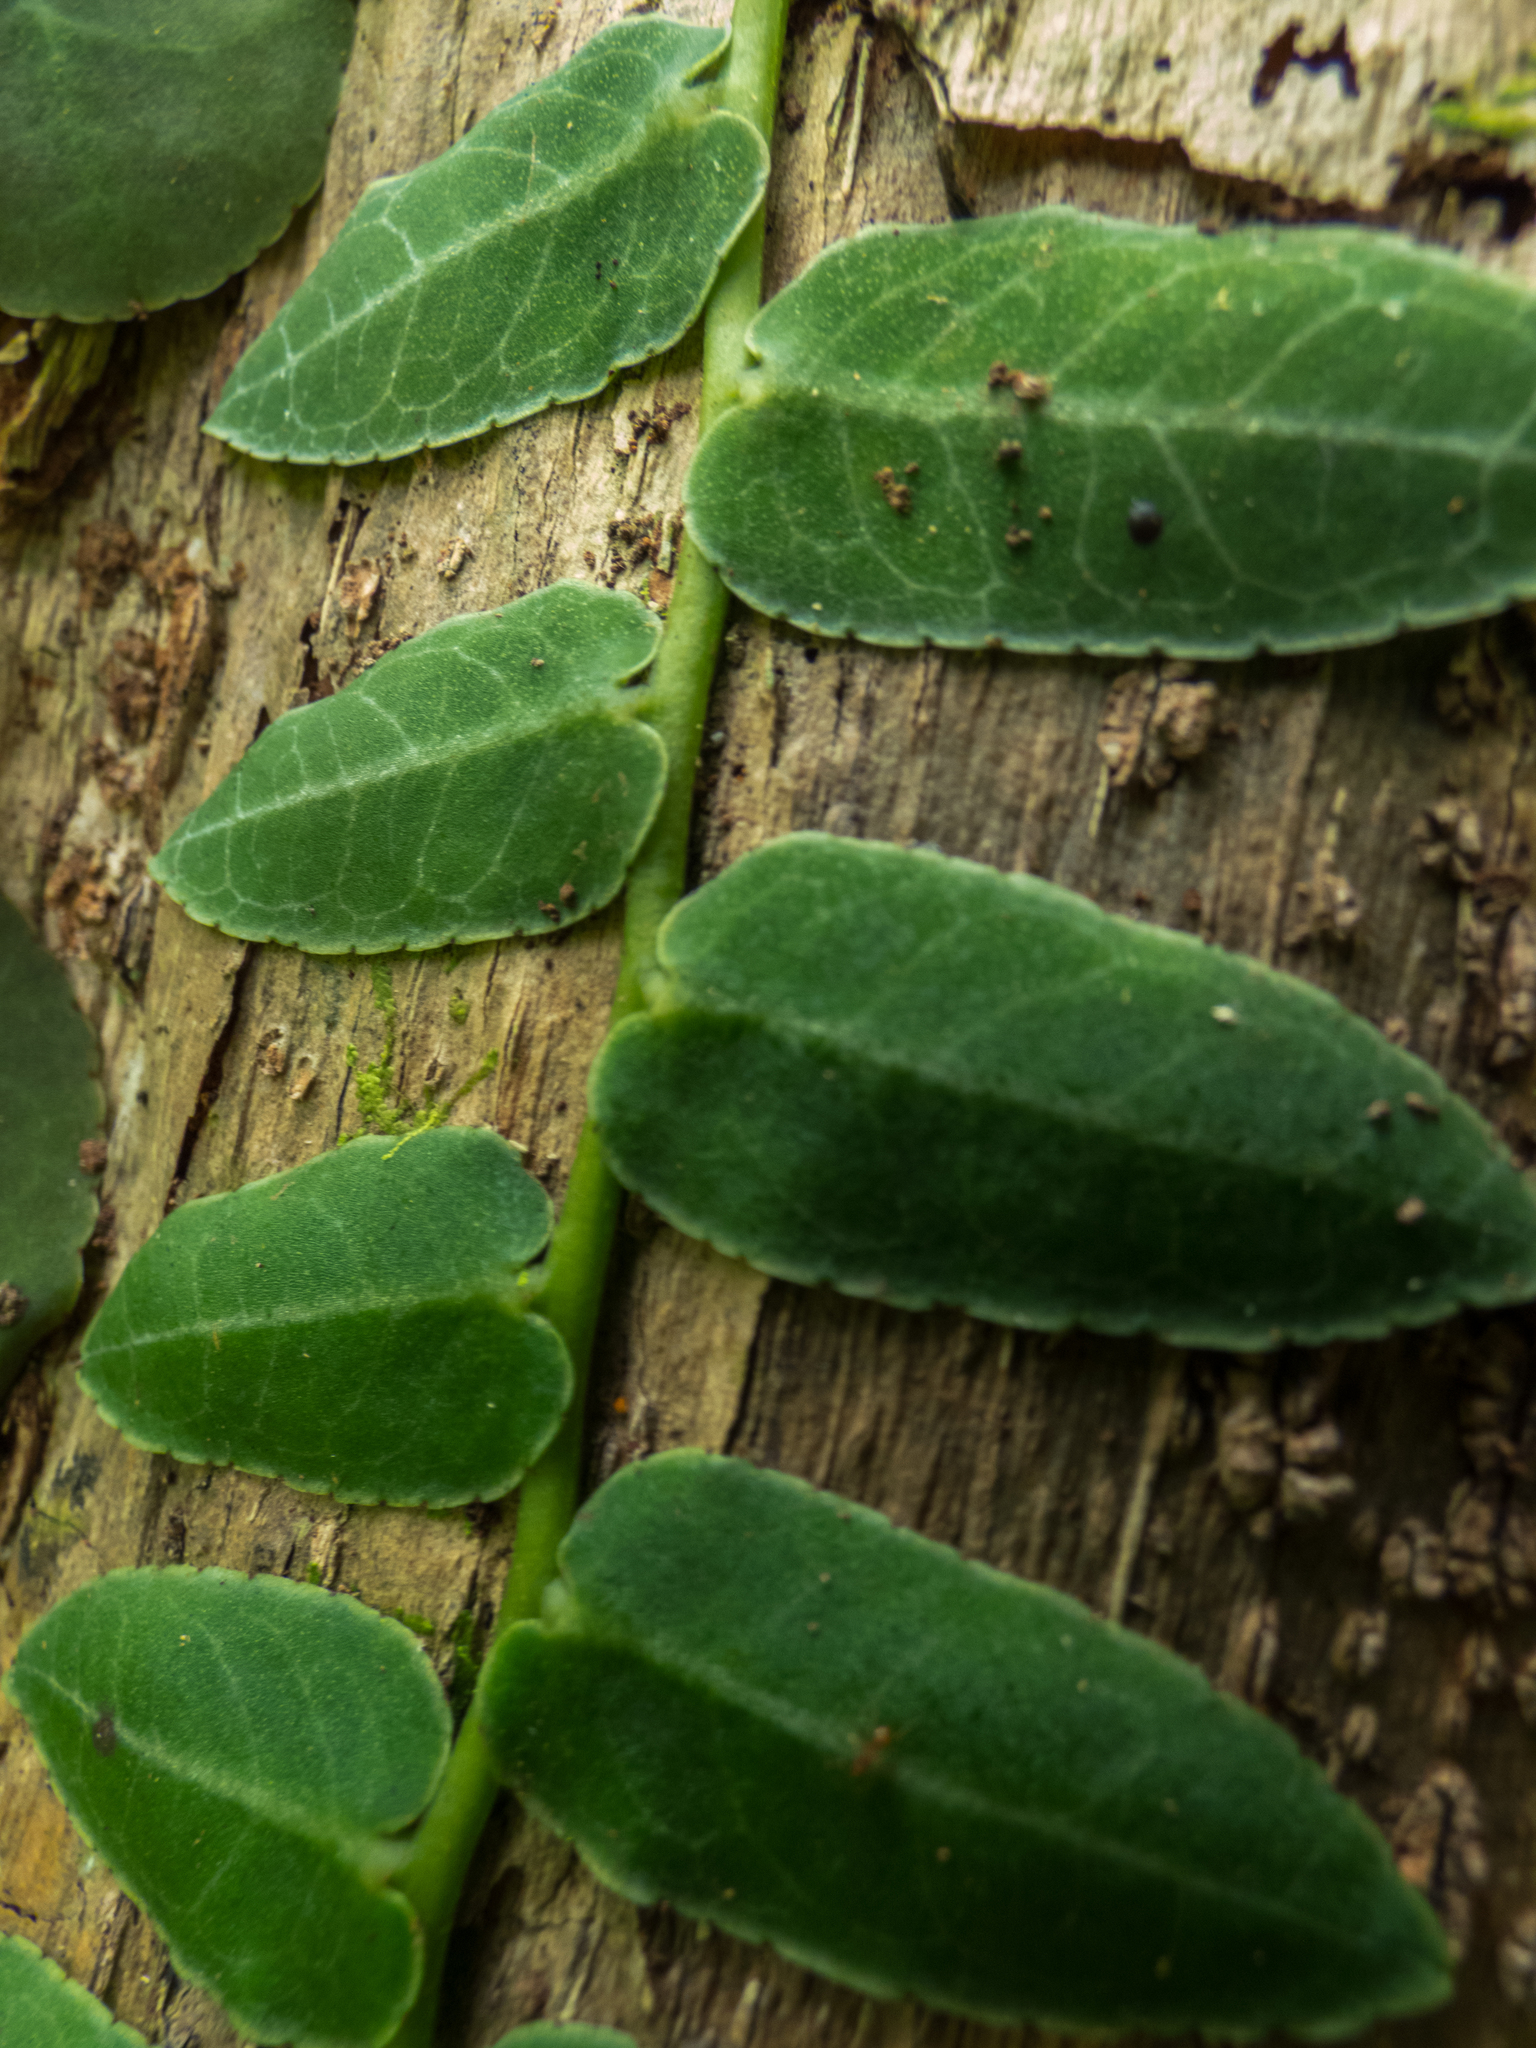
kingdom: Plantae
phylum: Tracheophyta
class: Magnoliopsida
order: Ericales
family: Marcgraviaceae
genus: Marcgravia
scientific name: Marcgravia rectiflora
